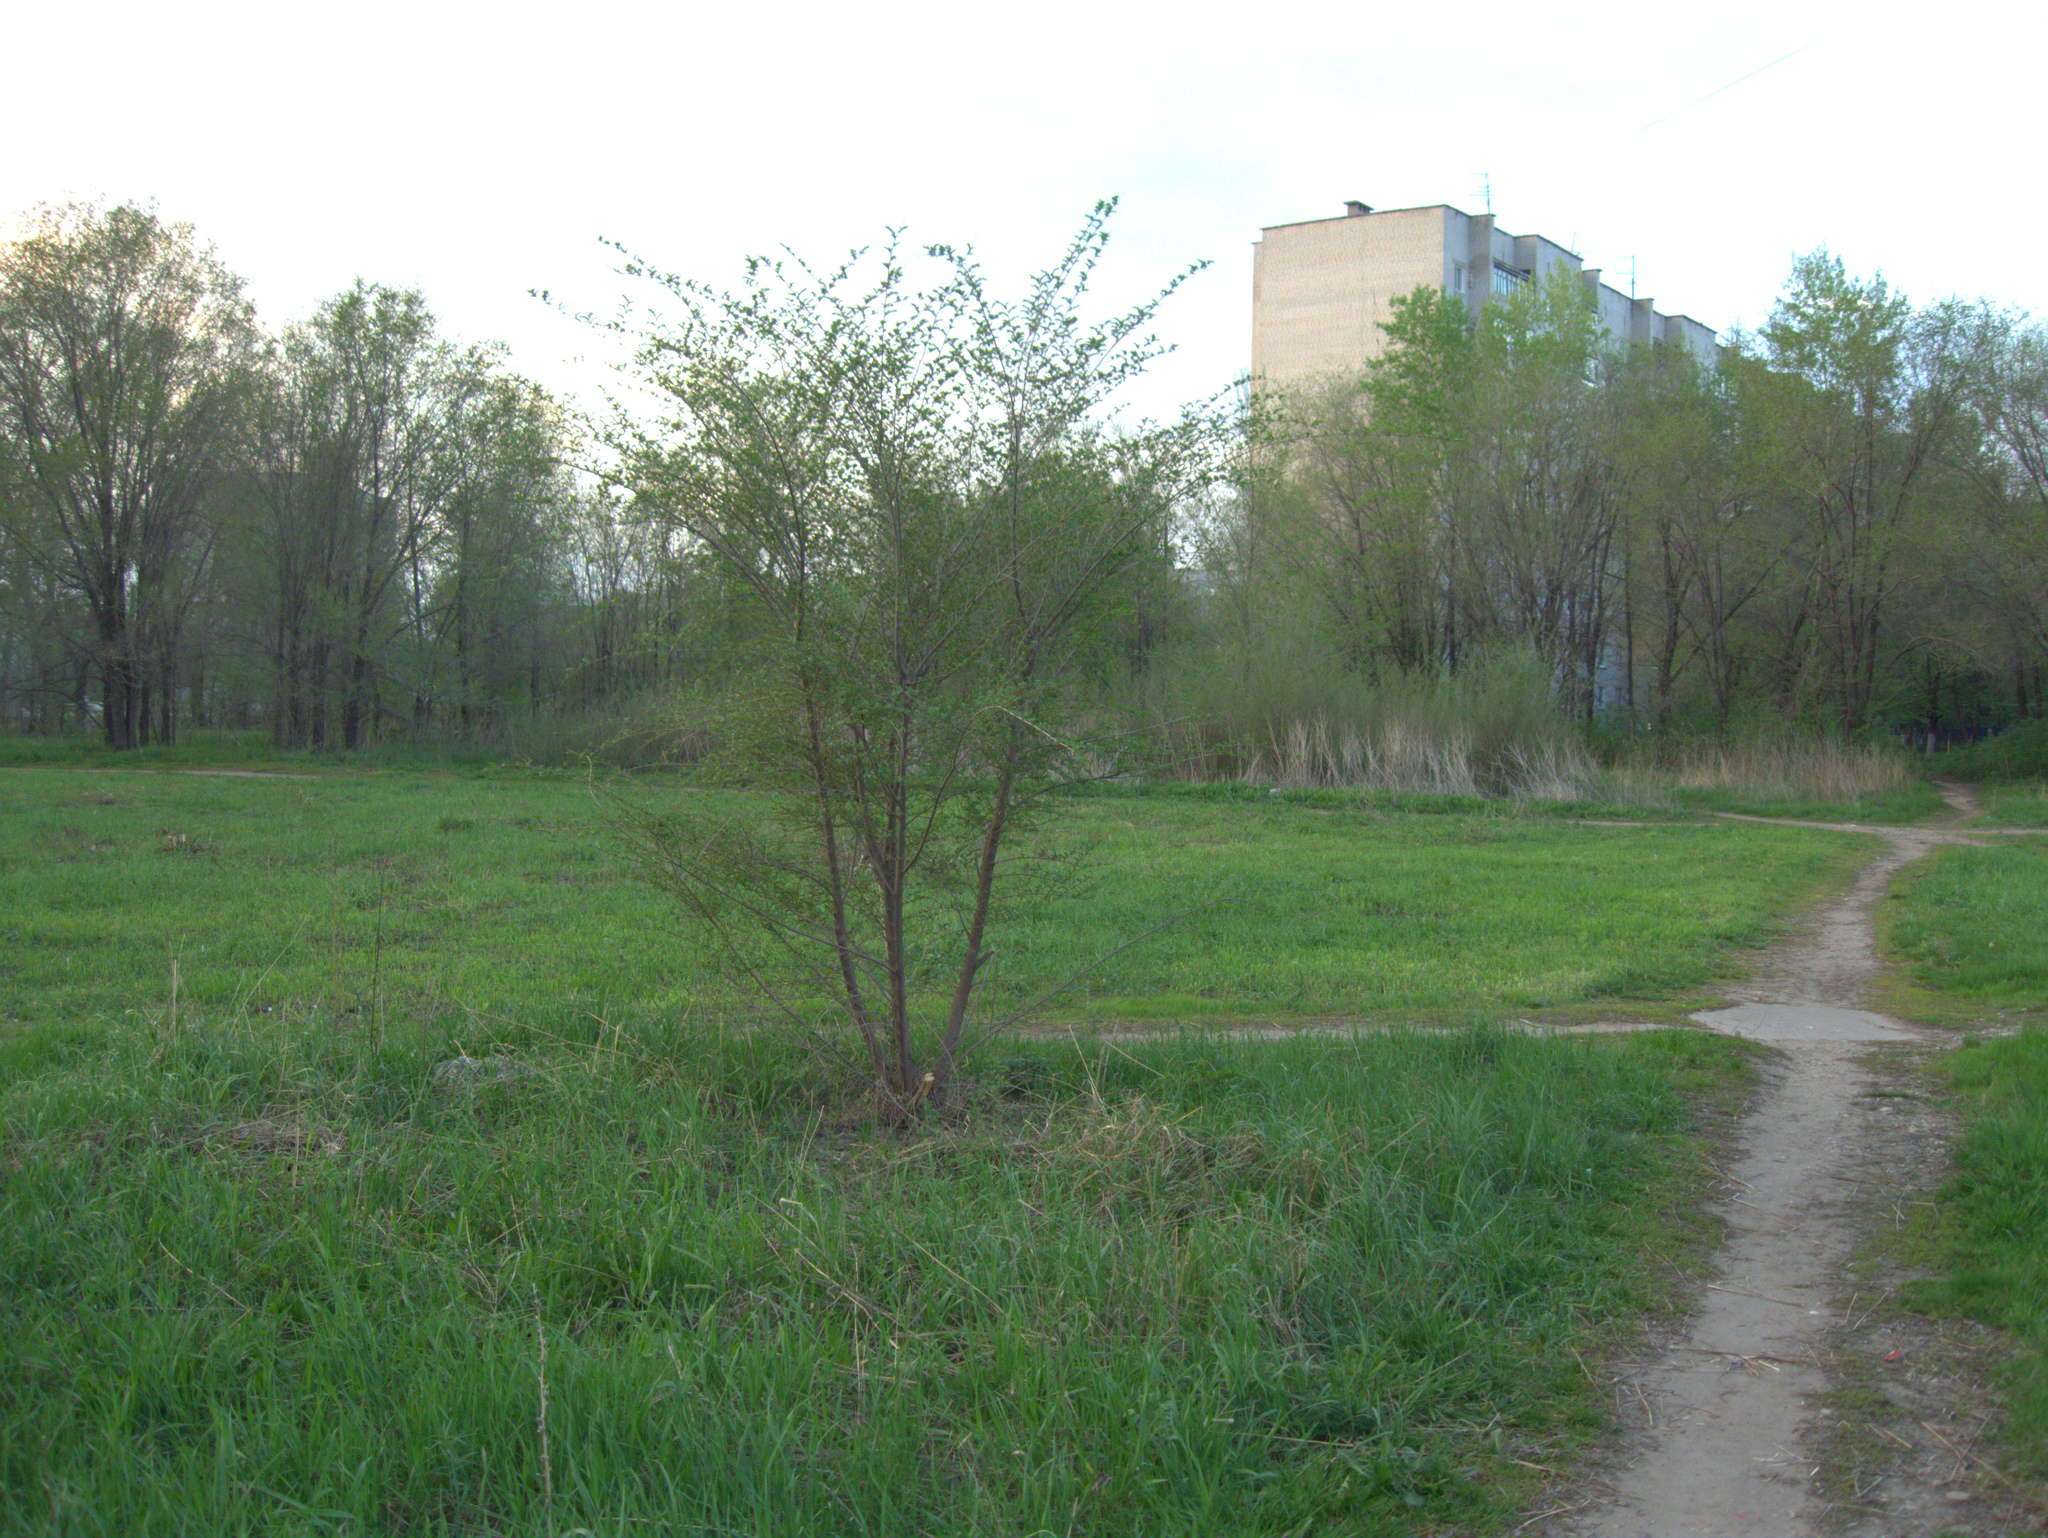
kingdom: Plantae
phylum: Tracheophyta
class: Magnoliopsida
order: Rosales
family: Ulmaceae
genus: Ulmus
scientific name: Ulmus pumila
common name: Siberian elm
